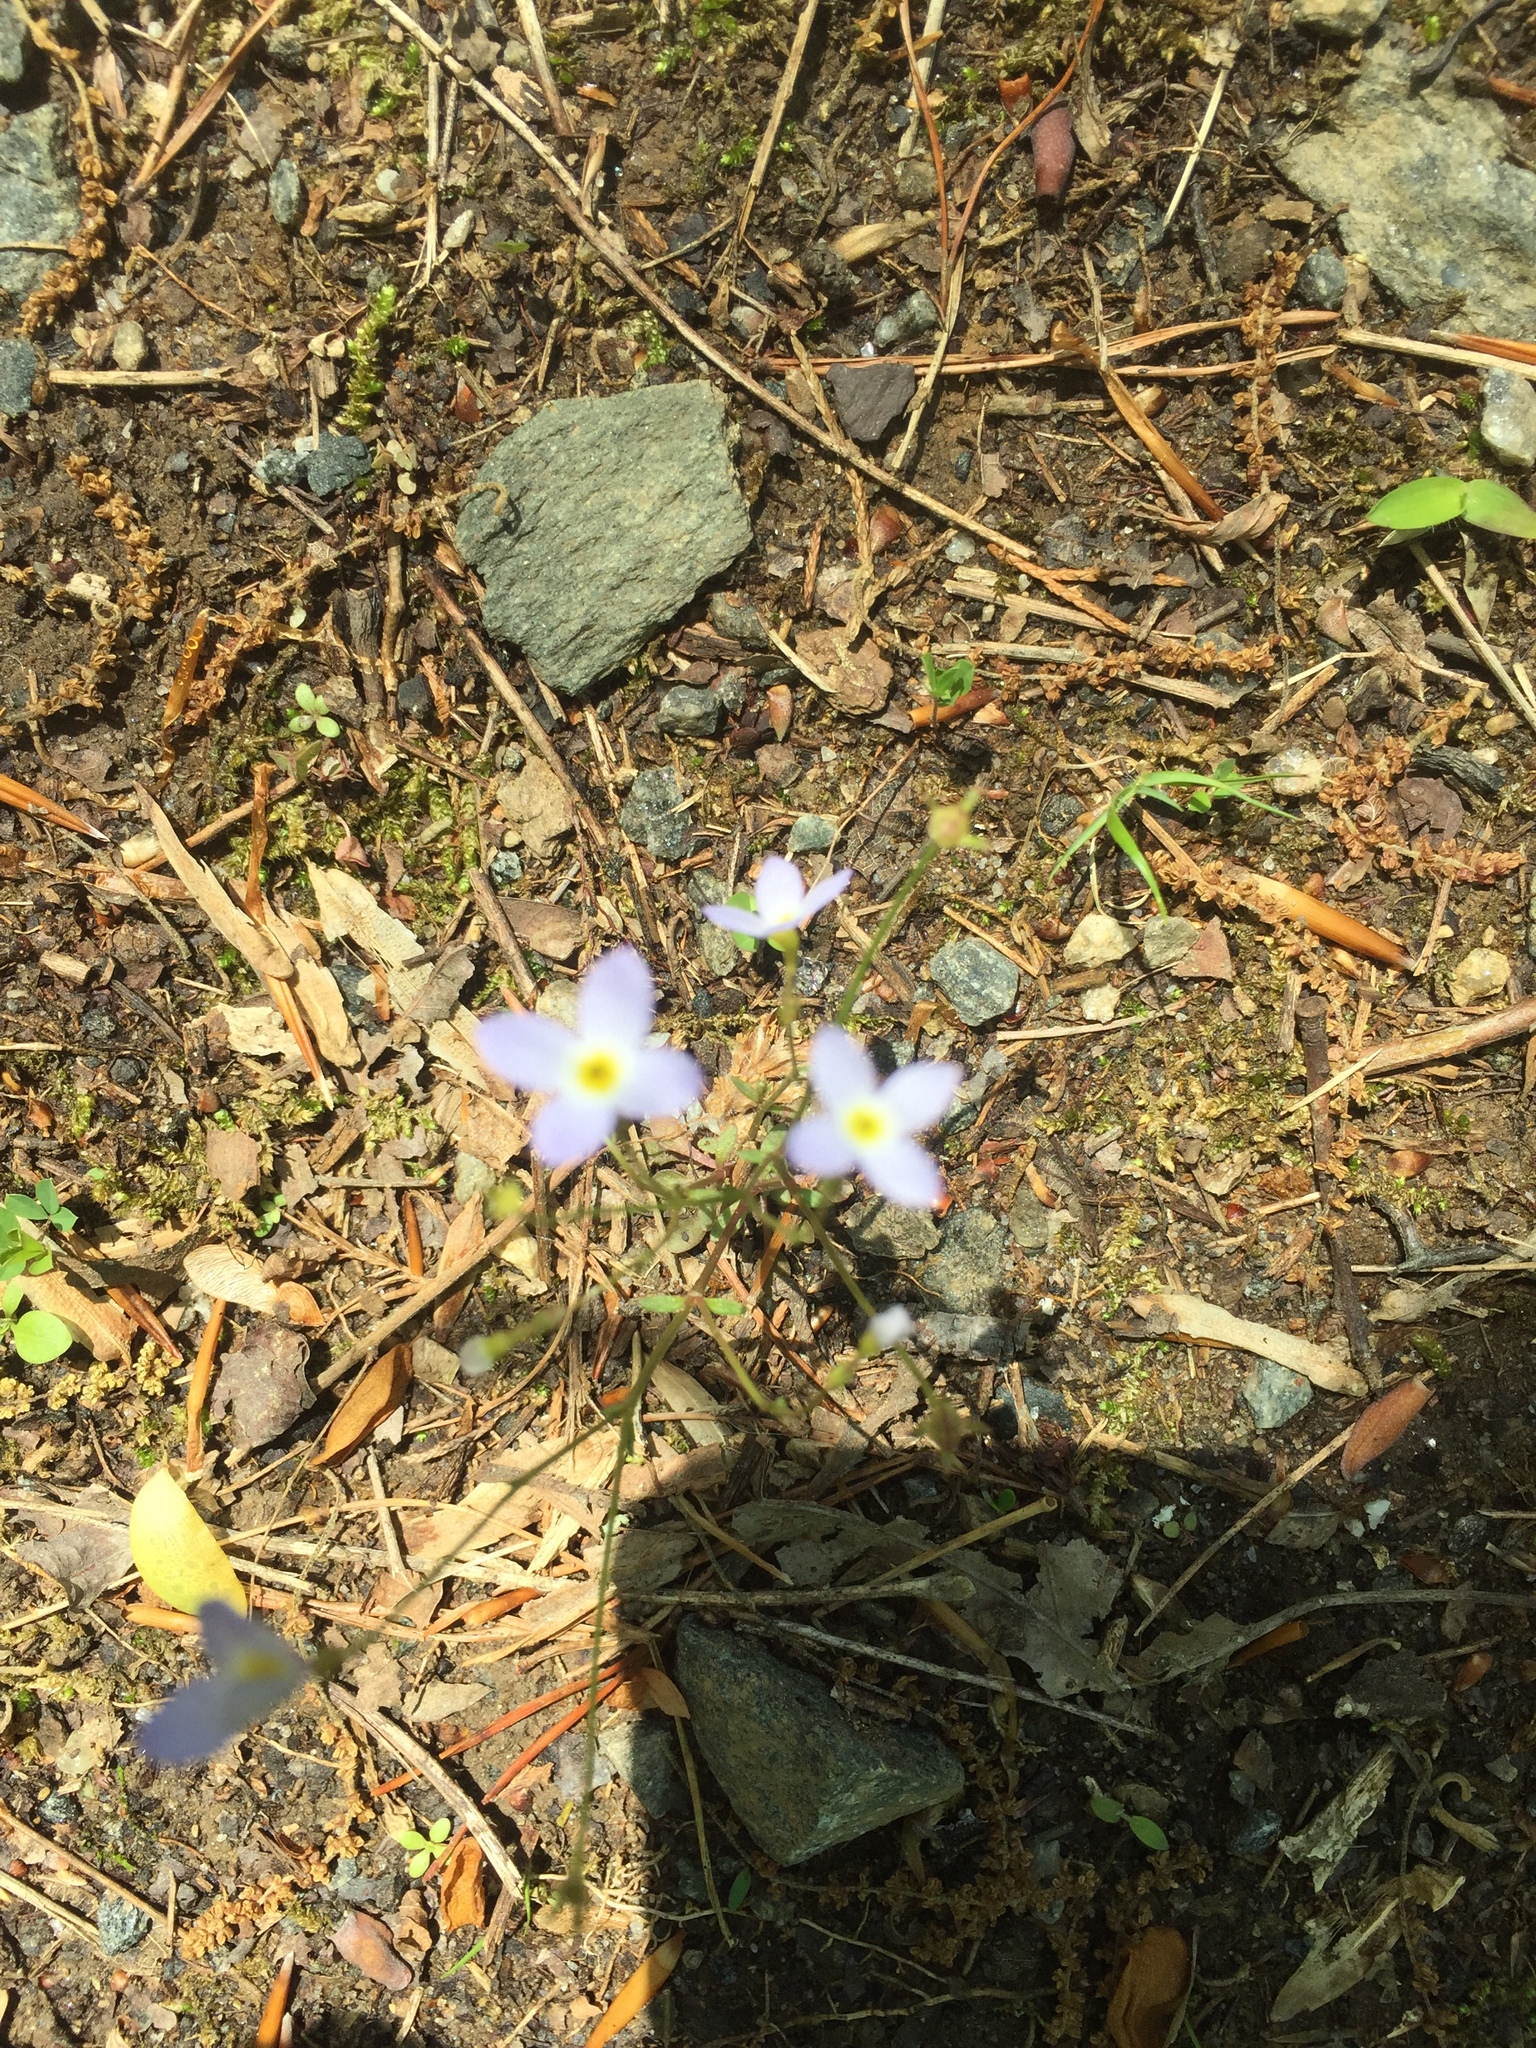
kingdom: Plantae
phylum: Tracheophyta
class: Magnoliopsida
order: Gentianales
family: Rubiaceae
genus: Houstonia
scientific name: Houstonia caerulea
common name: Bluets
